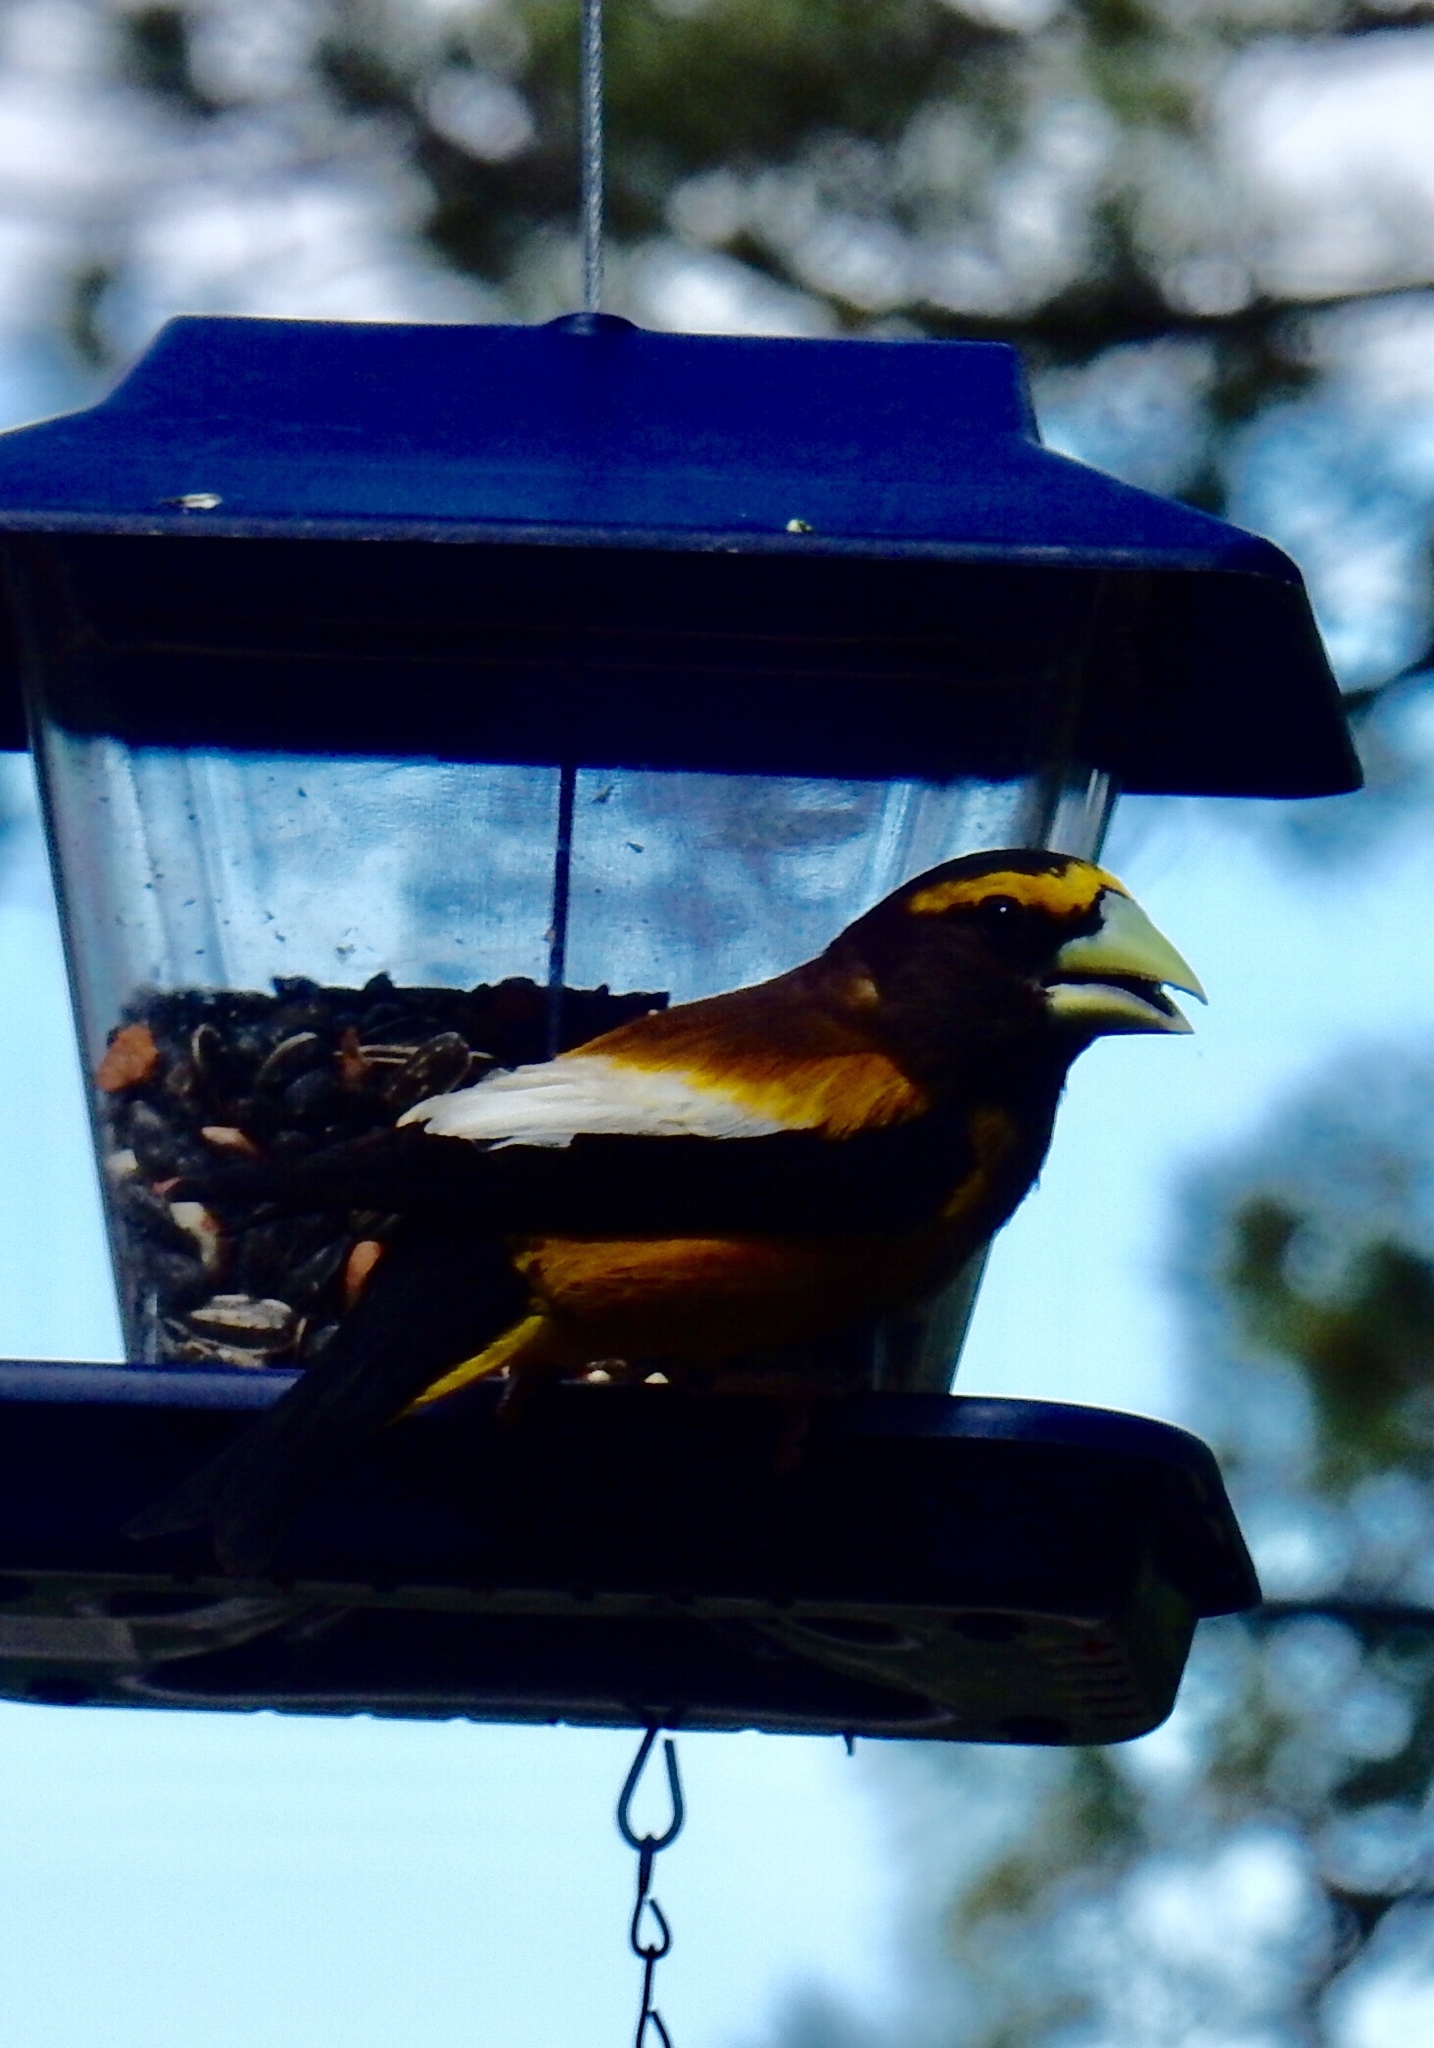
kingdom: Animalia
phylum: Chordata
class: Aves
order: Passeriformes
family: Fringillidae
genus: Hesperiphona
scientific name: Hesperiphona vespertina
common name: Evening grosbeak
